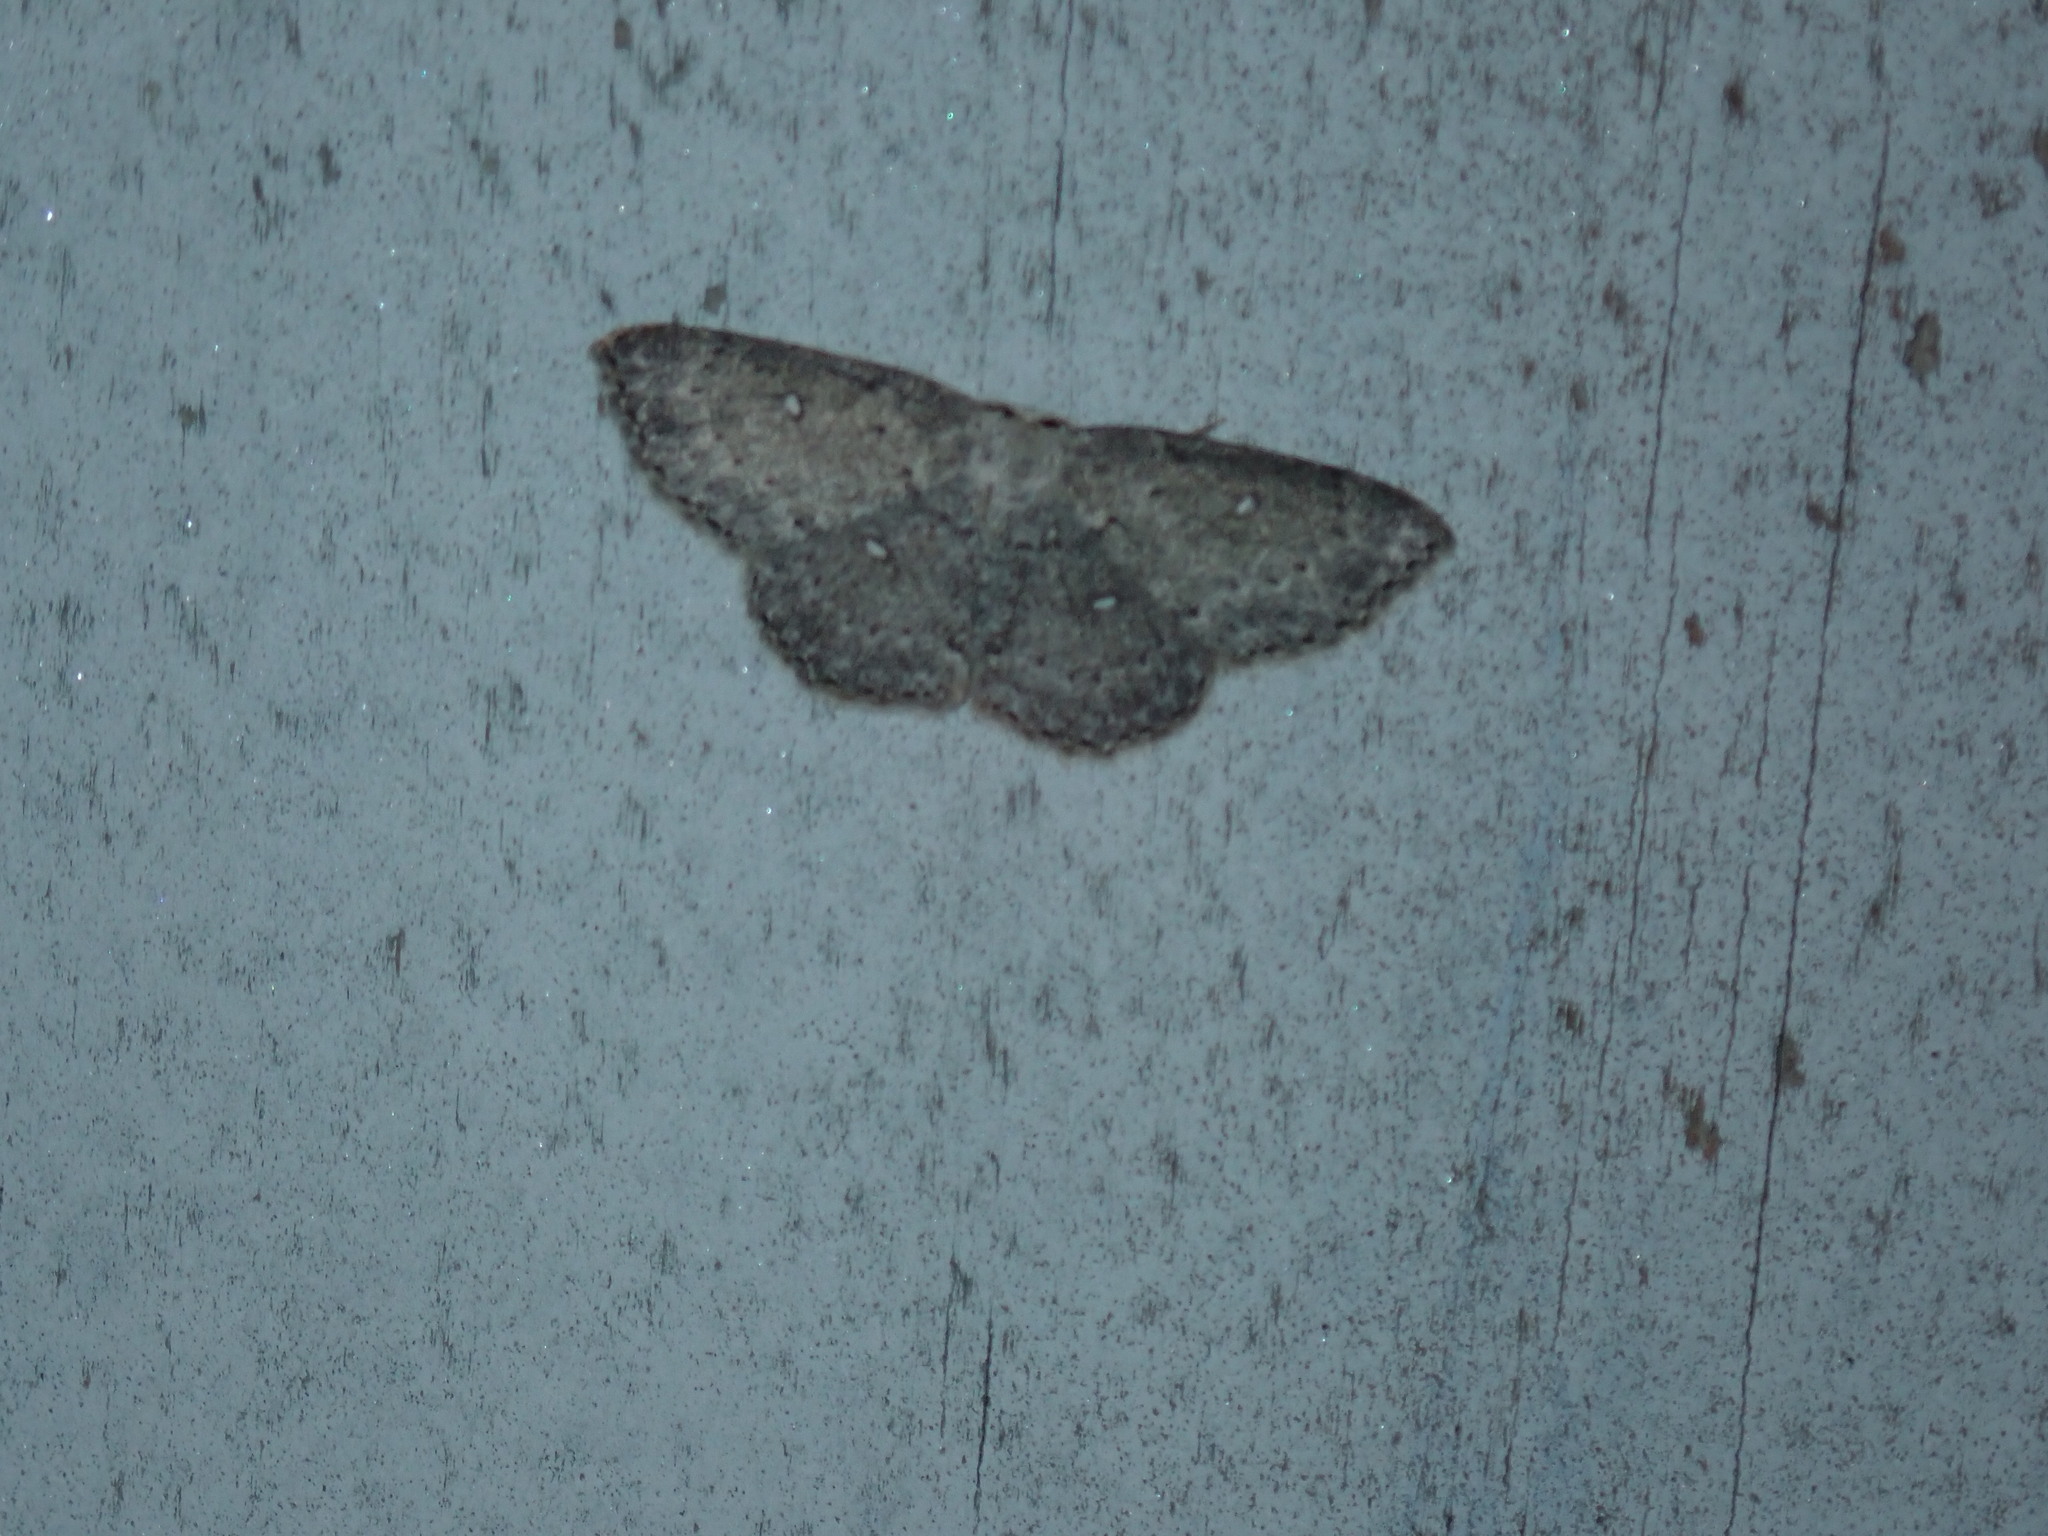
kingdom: Animalia
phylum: Arthropoda
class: Insecta
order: Lepidoptera
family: Geometridae
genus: Cyclophora
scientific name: Cyclophora pendulinaria
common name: Sweet fern geometer
